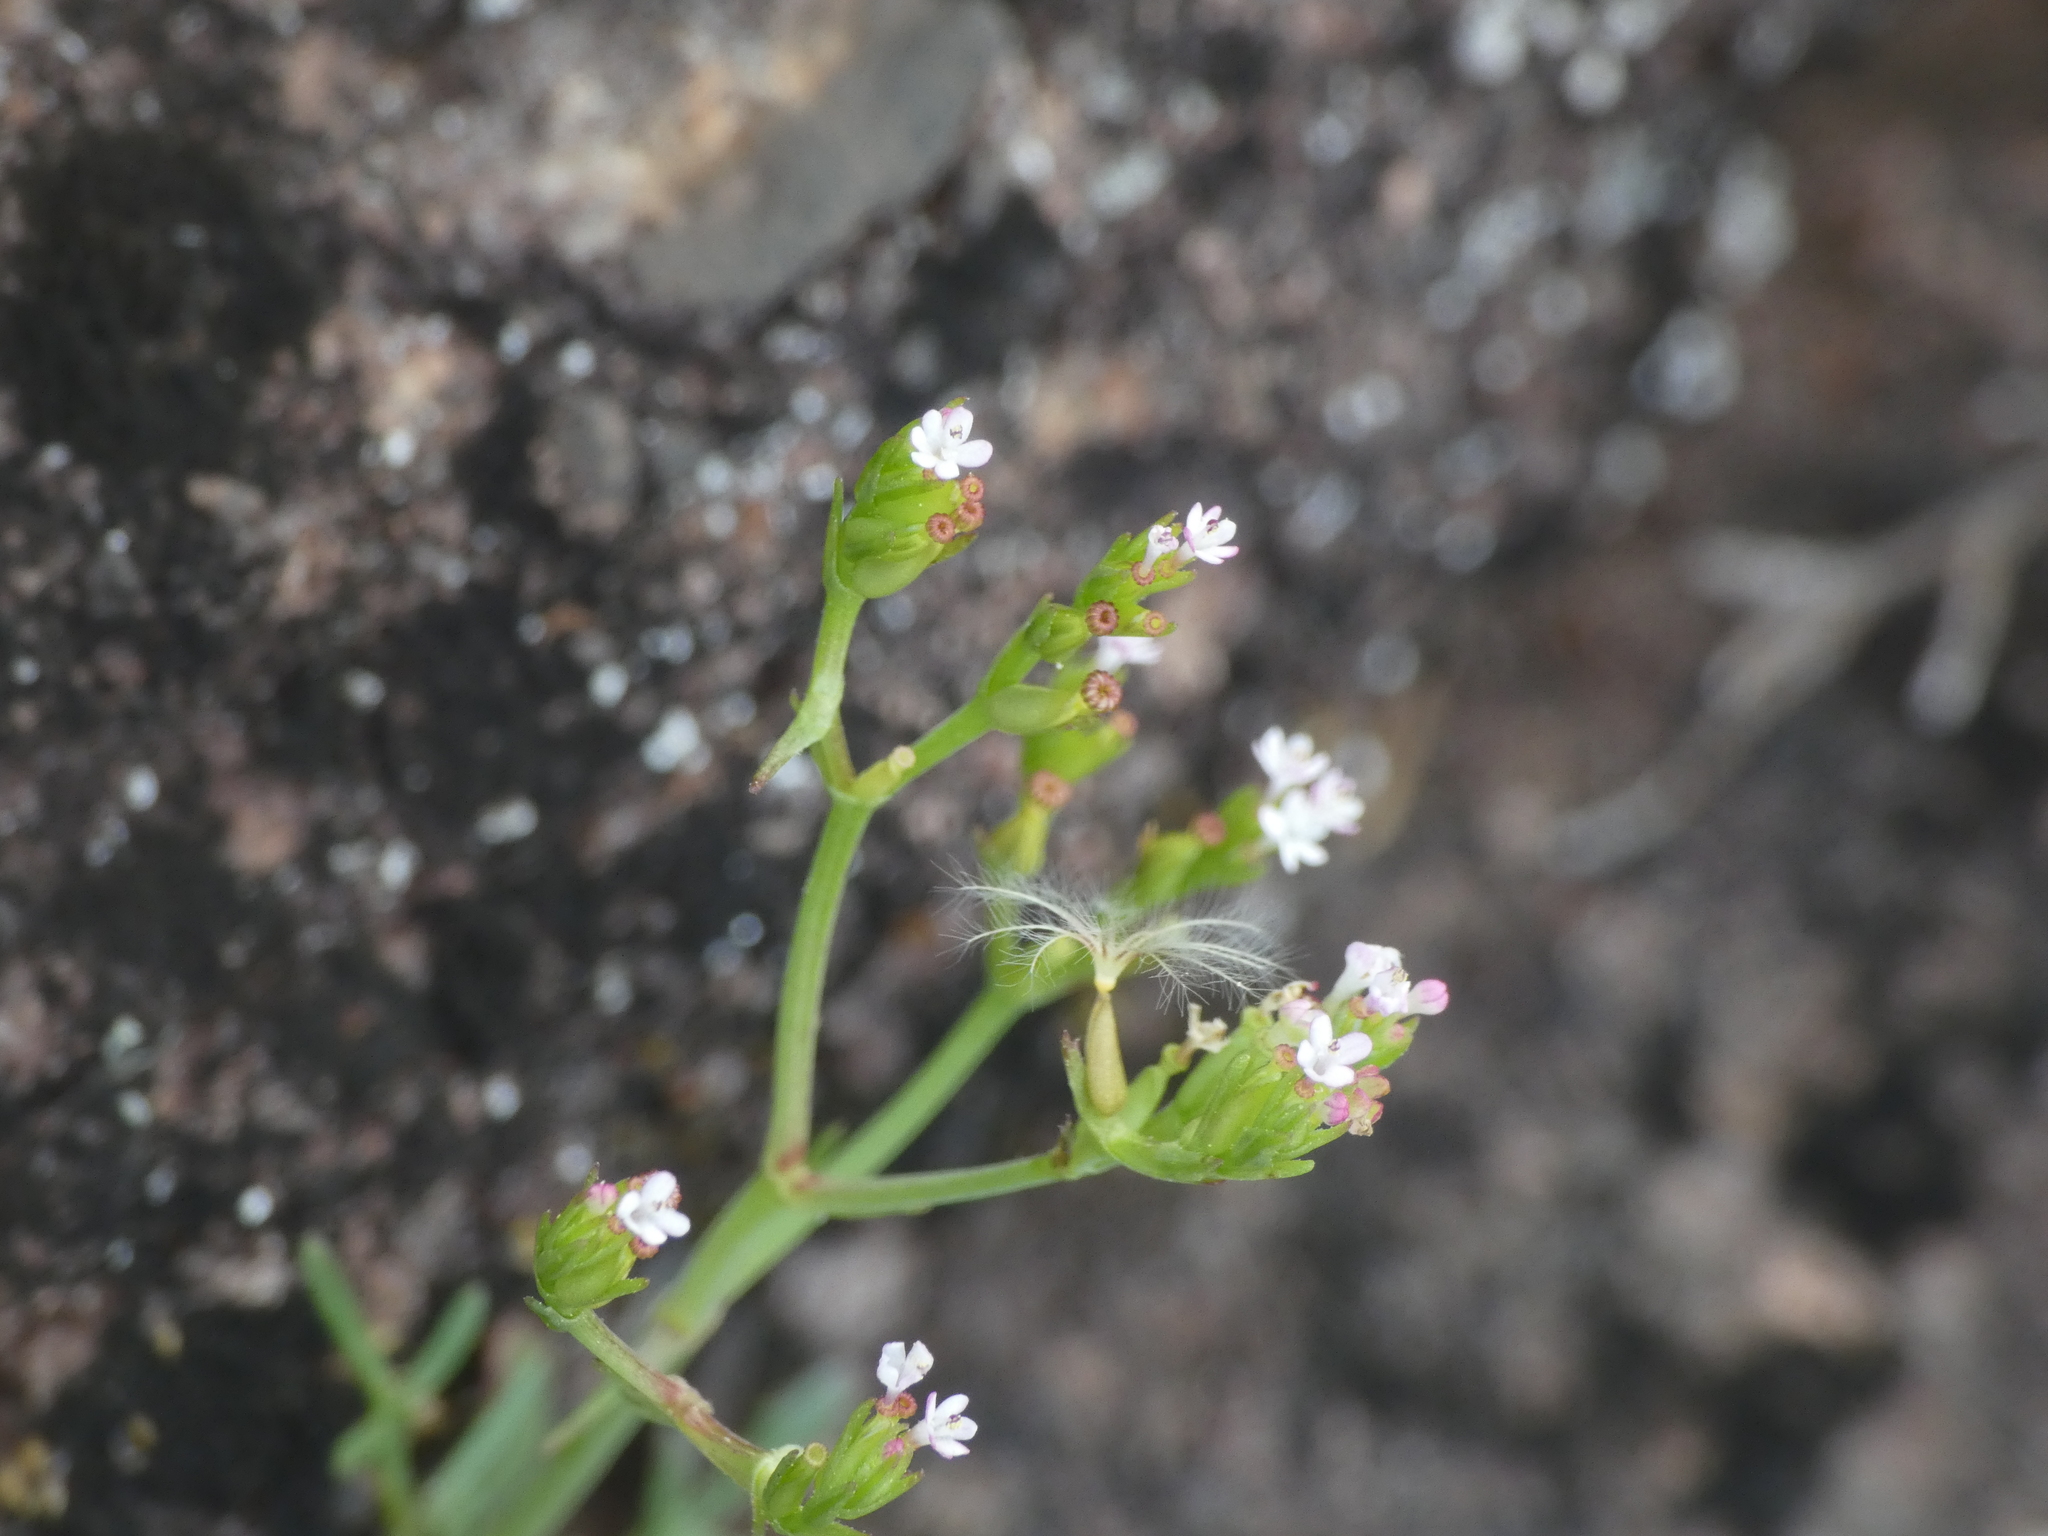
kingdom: Plantae
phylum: Tracheophyta
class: Magnoliopsida
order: Dipsacales
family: Caprifoliaceae
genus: Centranthus
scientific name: Centranthus calcitrapae
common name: Annual valerian
